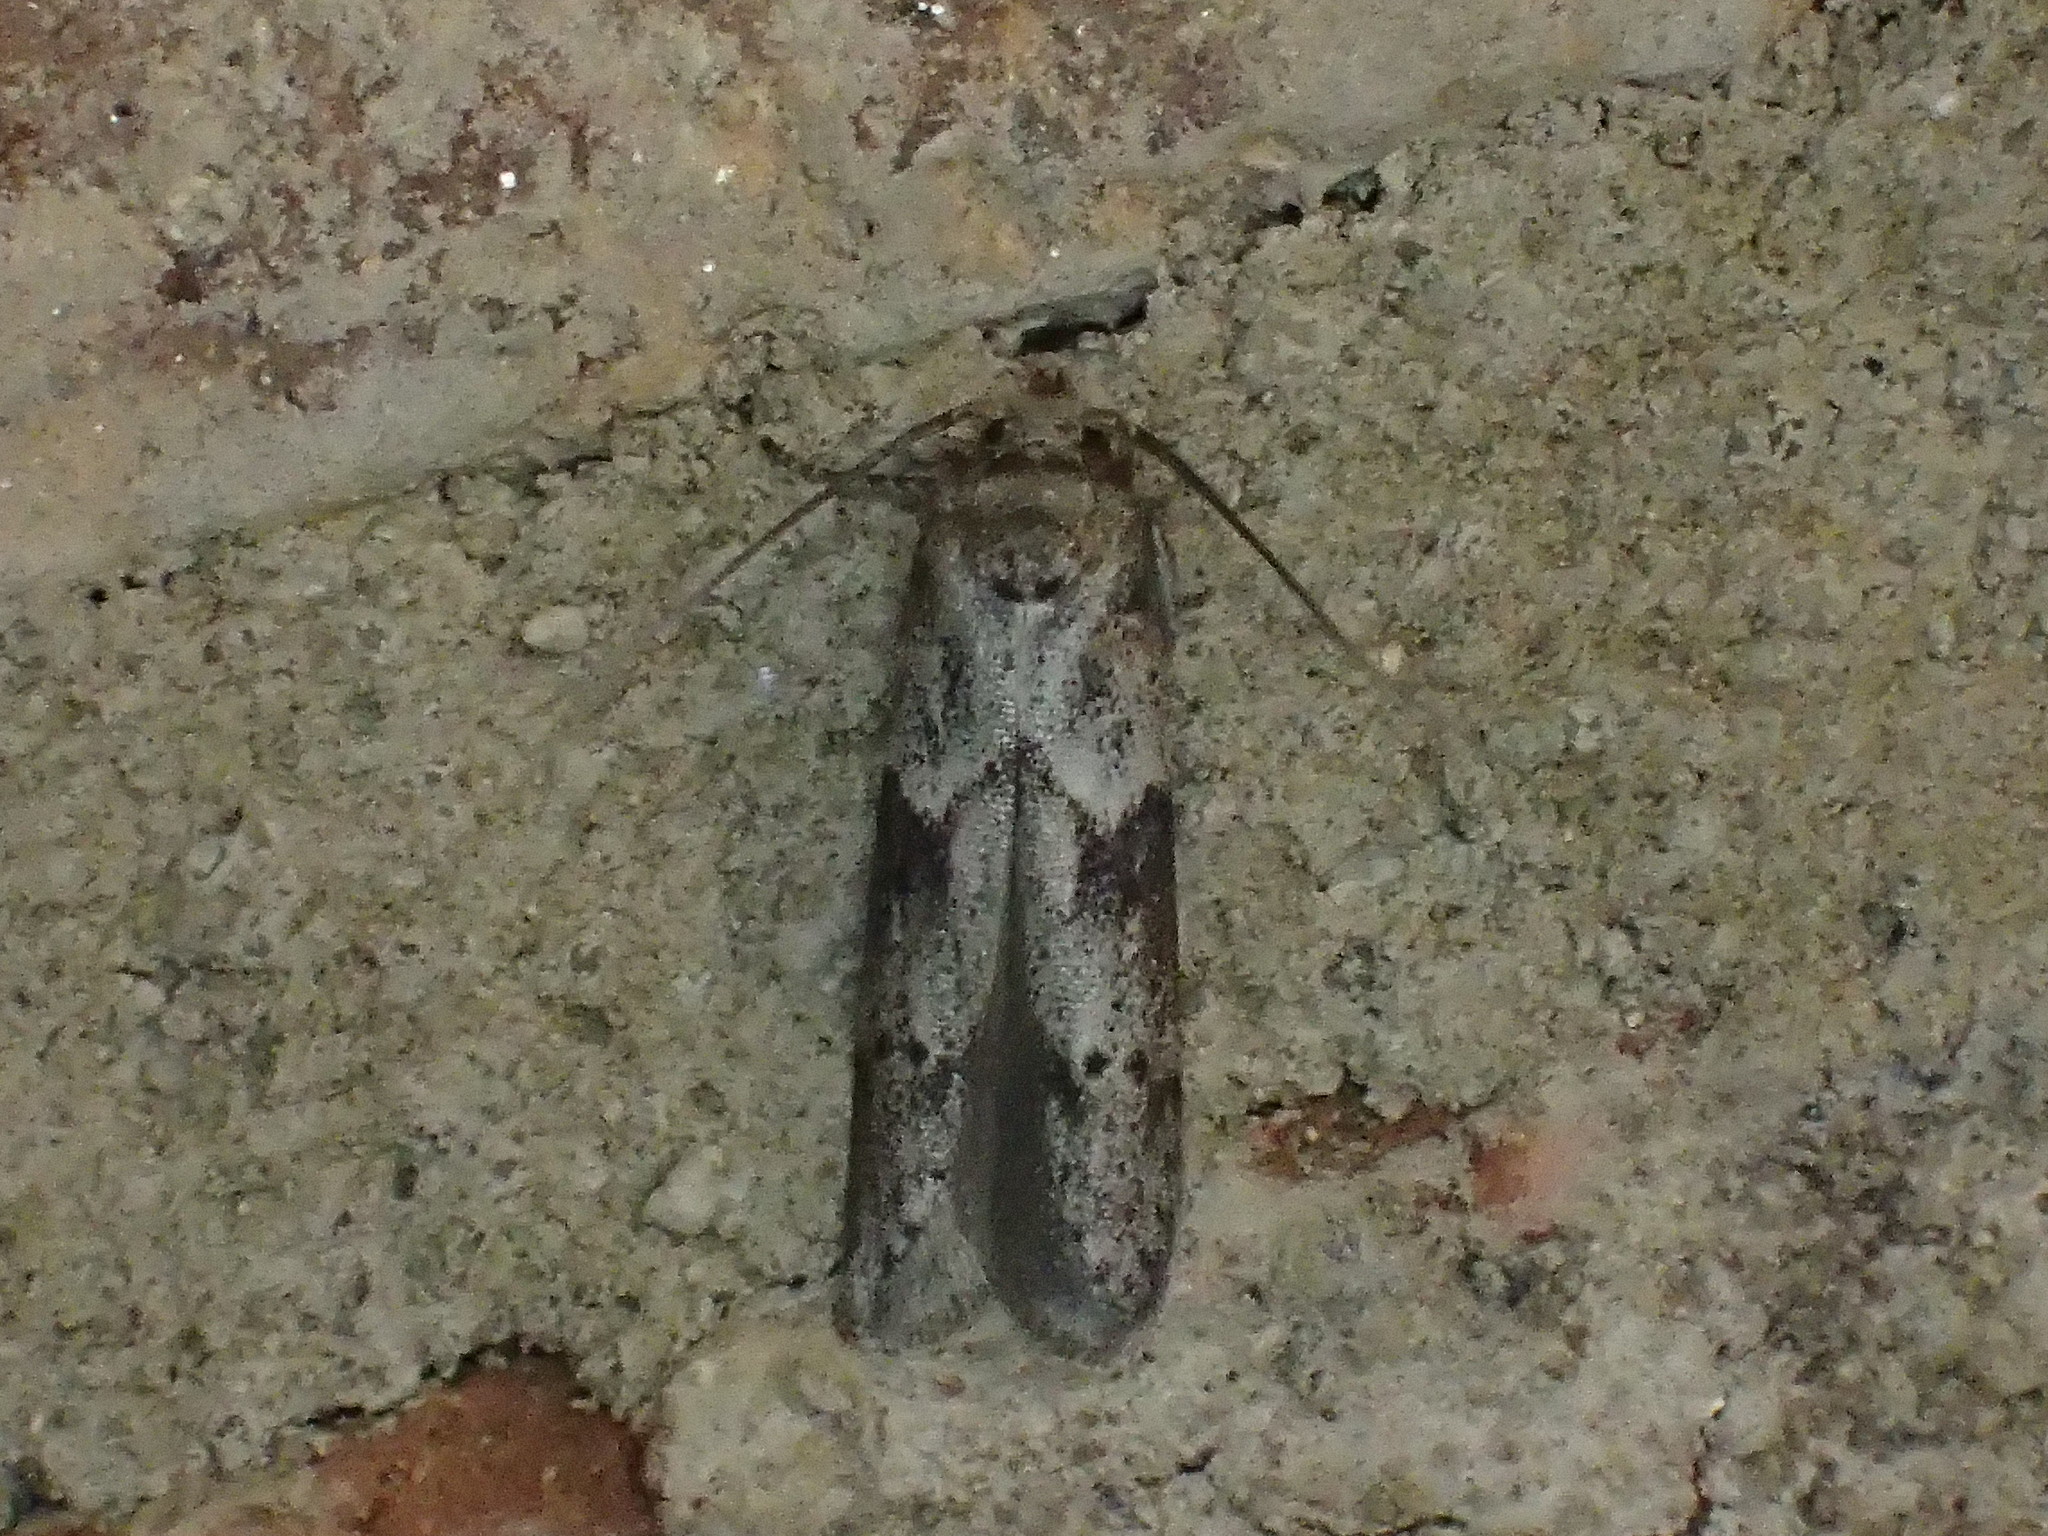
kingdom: Animalia
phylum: Arthropoda
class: Insecta
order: Lepidoptera
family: Blastobasidae
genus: Blastobasis
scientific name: Blastobasis glandulella
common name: Acorn moth
